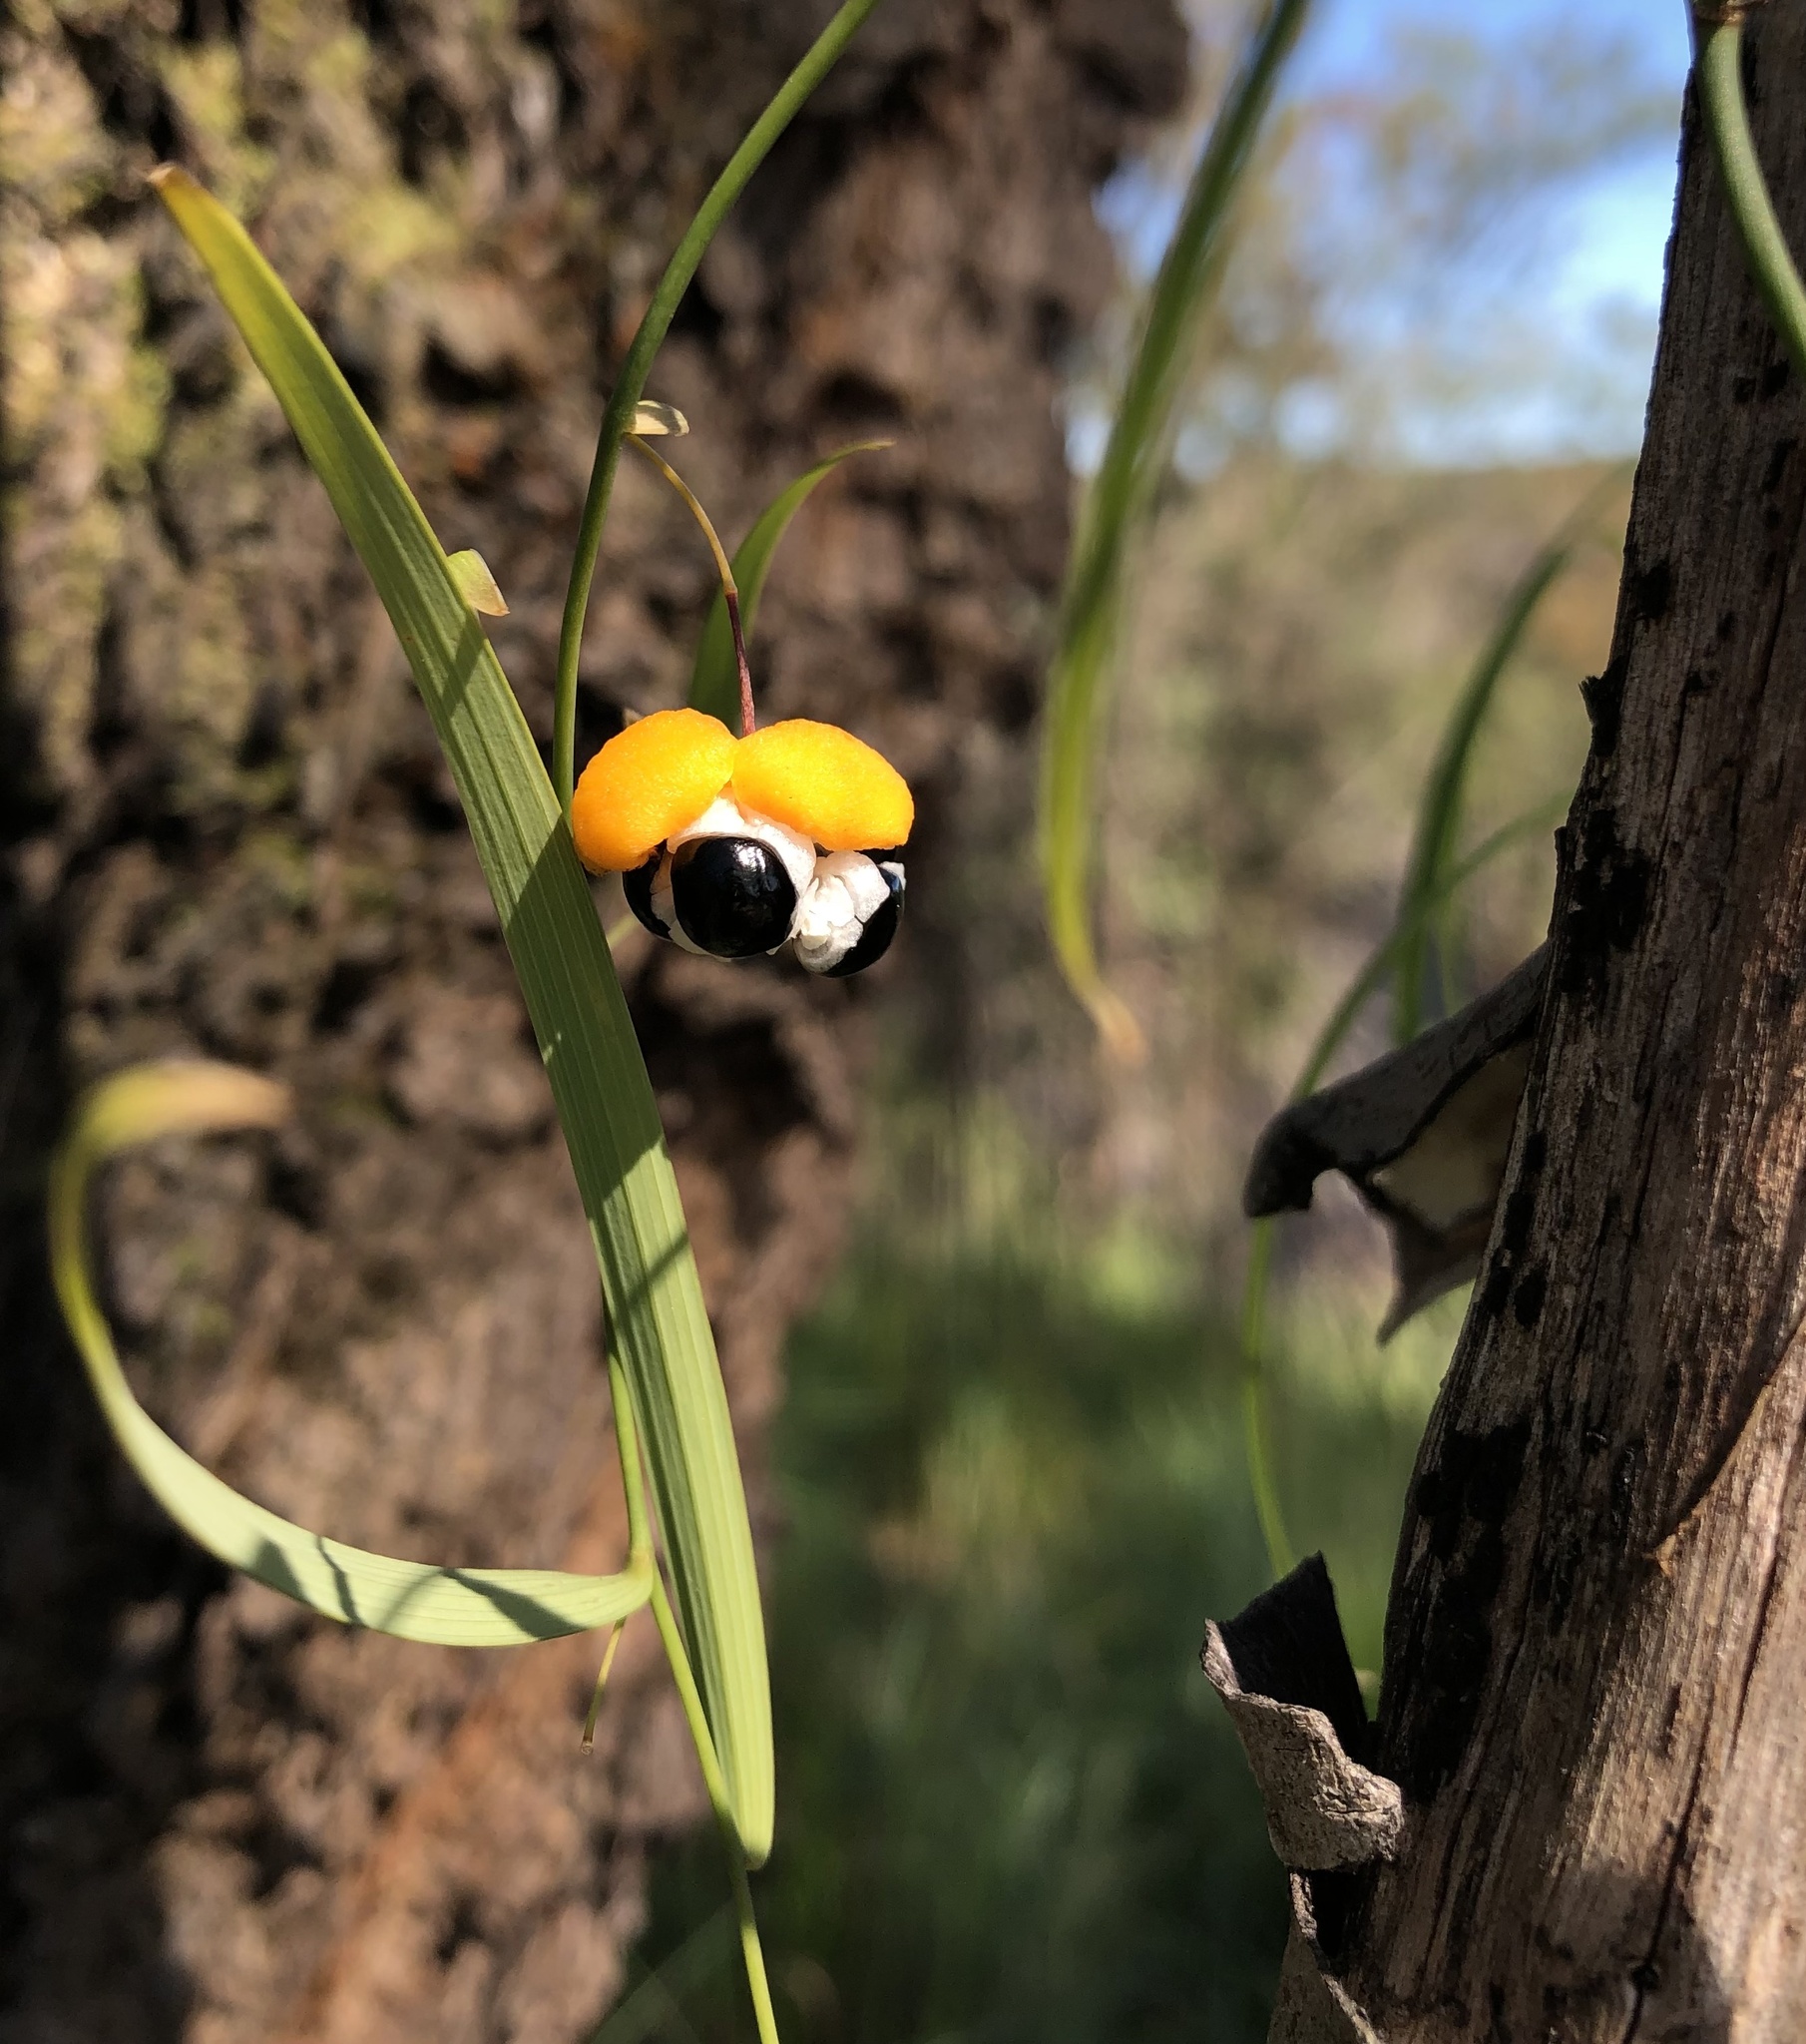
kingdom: Plantae
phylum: Tracheophyta
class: Liliopsida
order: Asparagales
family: Asparagaceae
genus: Eustrephus
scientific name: Eustrephus latifolius
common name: Orangevine
